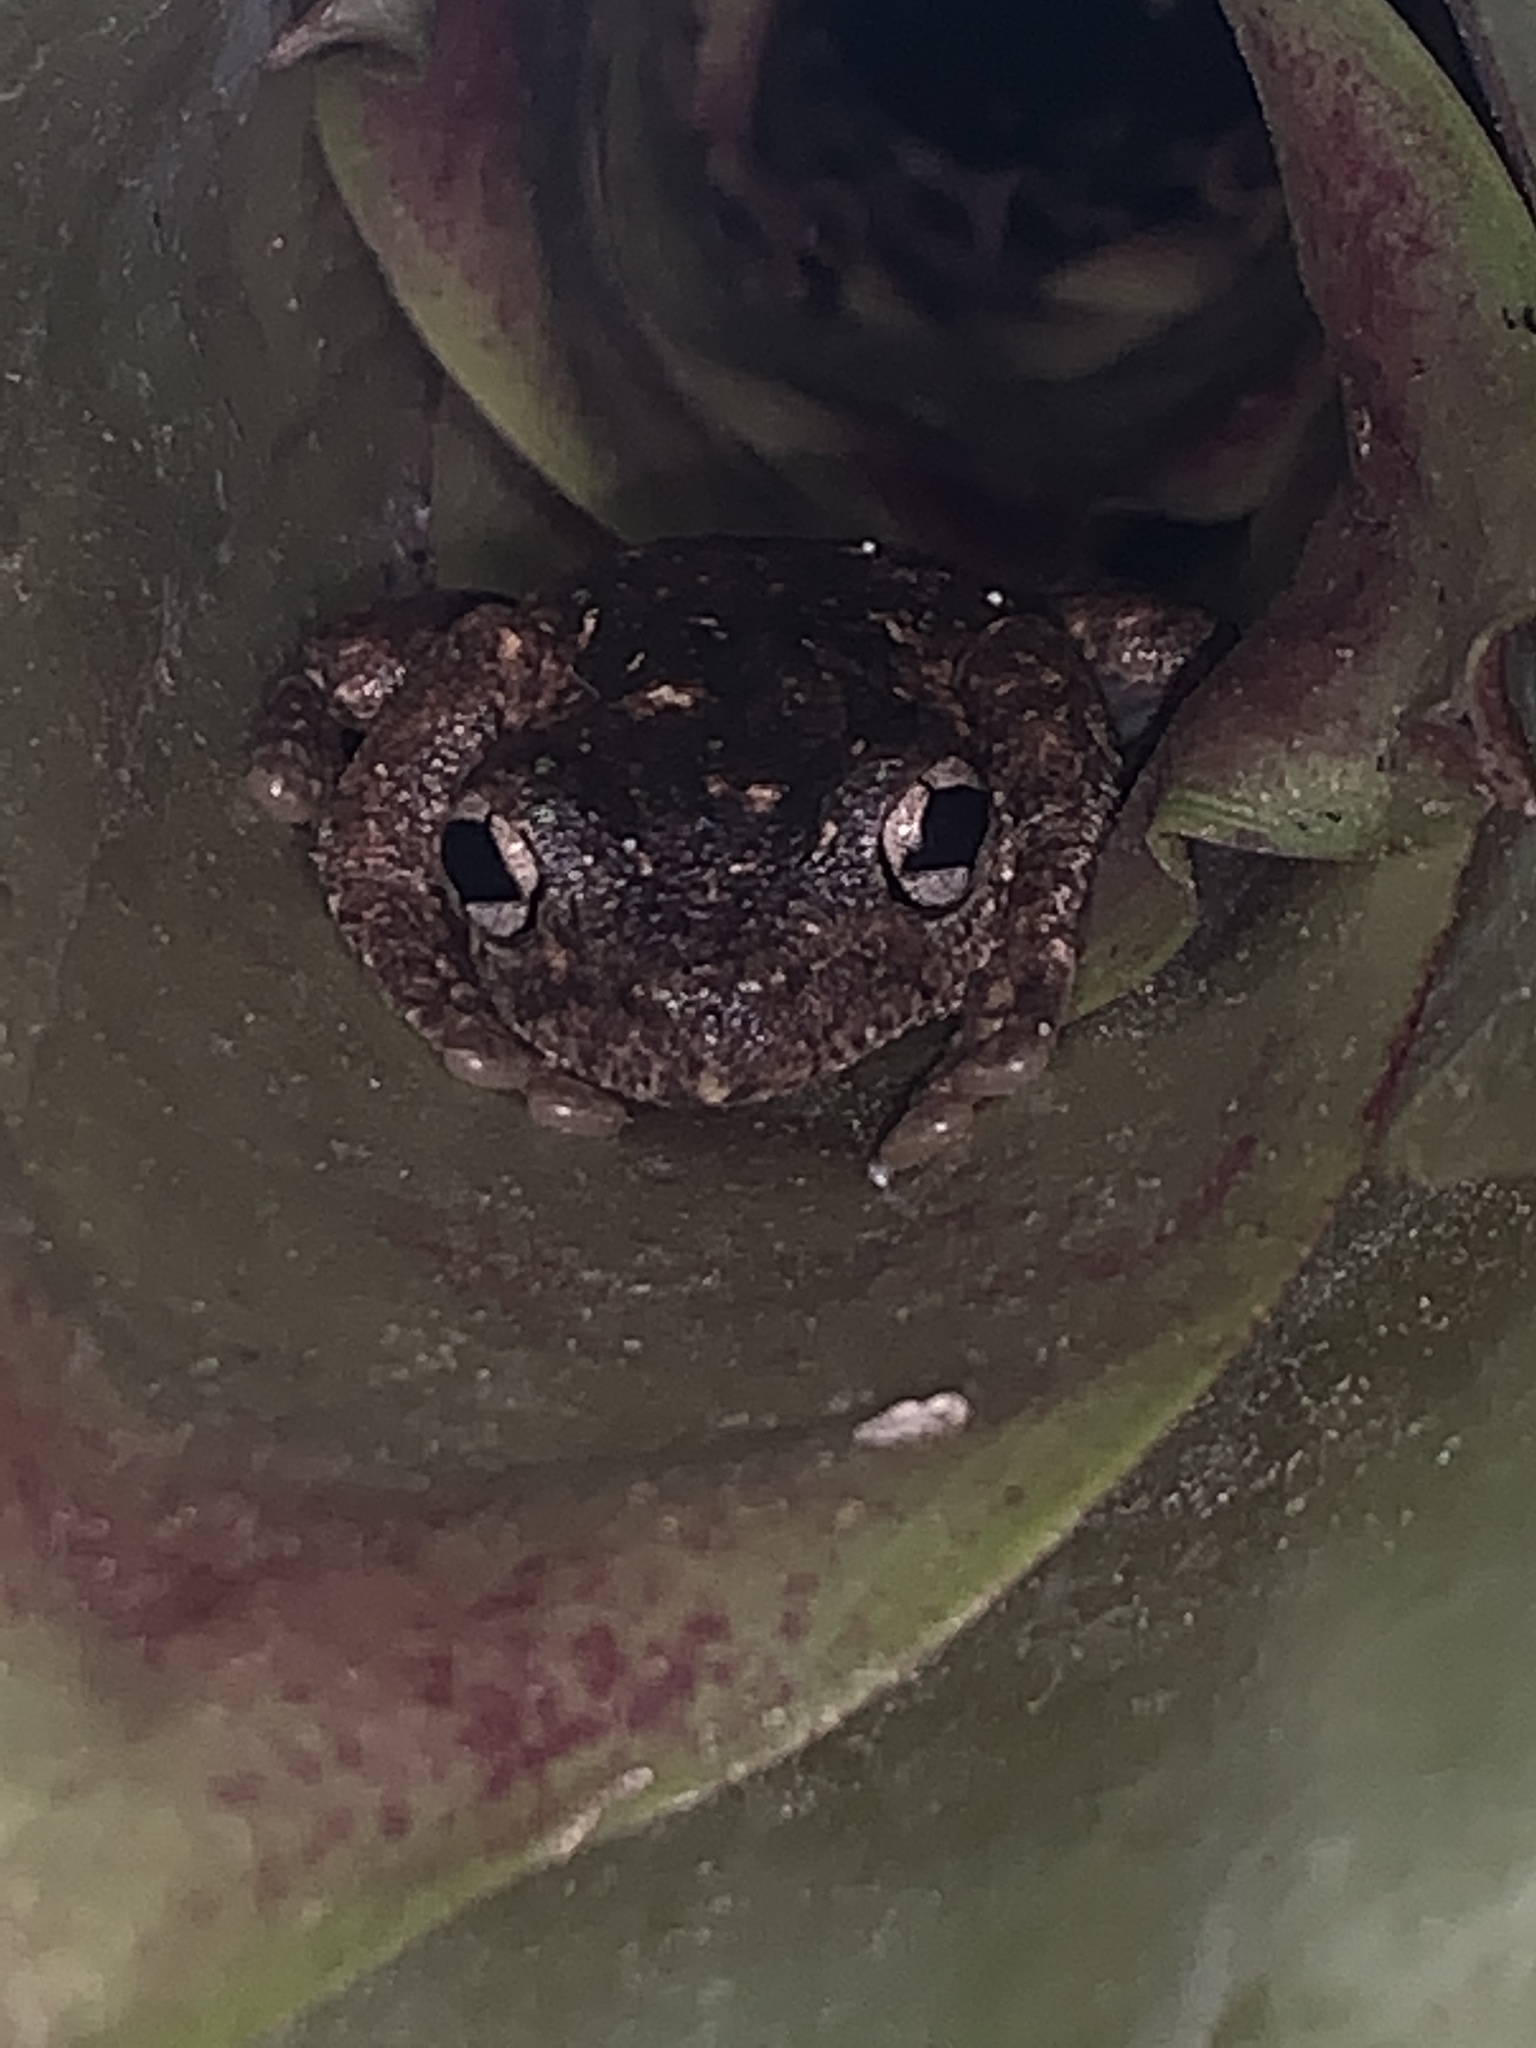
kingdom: Animalia
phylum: Chordata
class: Amphibia
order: Anura
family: Pelodryadidae
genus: Litoria
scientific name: Litoria peronii
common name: Emerald spotted treefrog
